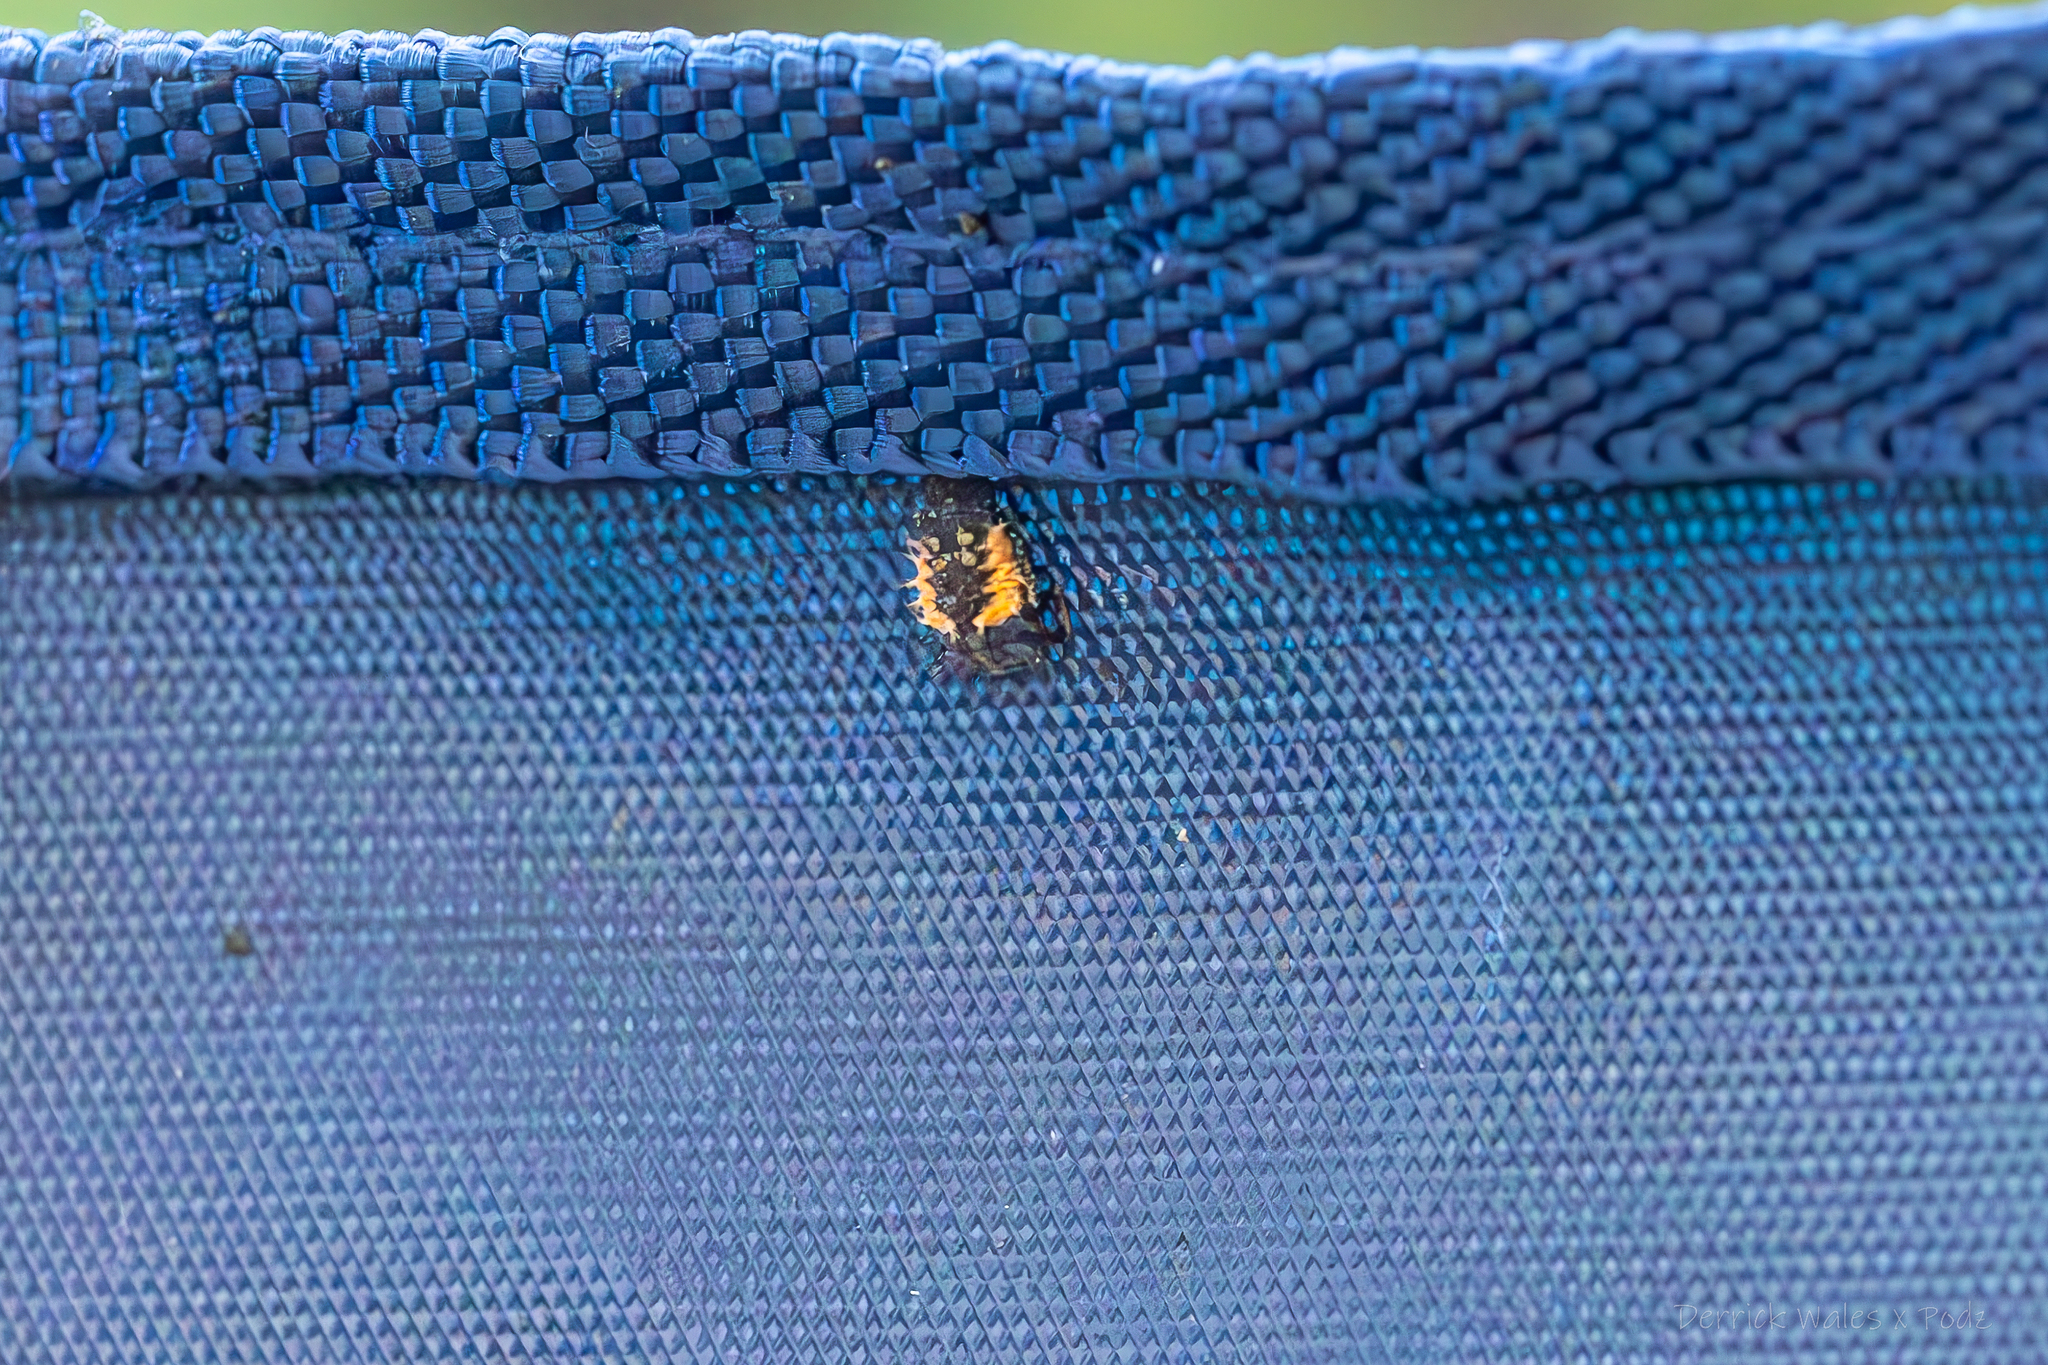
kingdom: Animalia
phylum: Arthropoda
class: Insecta
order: Coleoptera
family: Coccinellidae
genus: Harmonia
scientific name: Harmonia axyridis
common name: Harlequin ladybird
